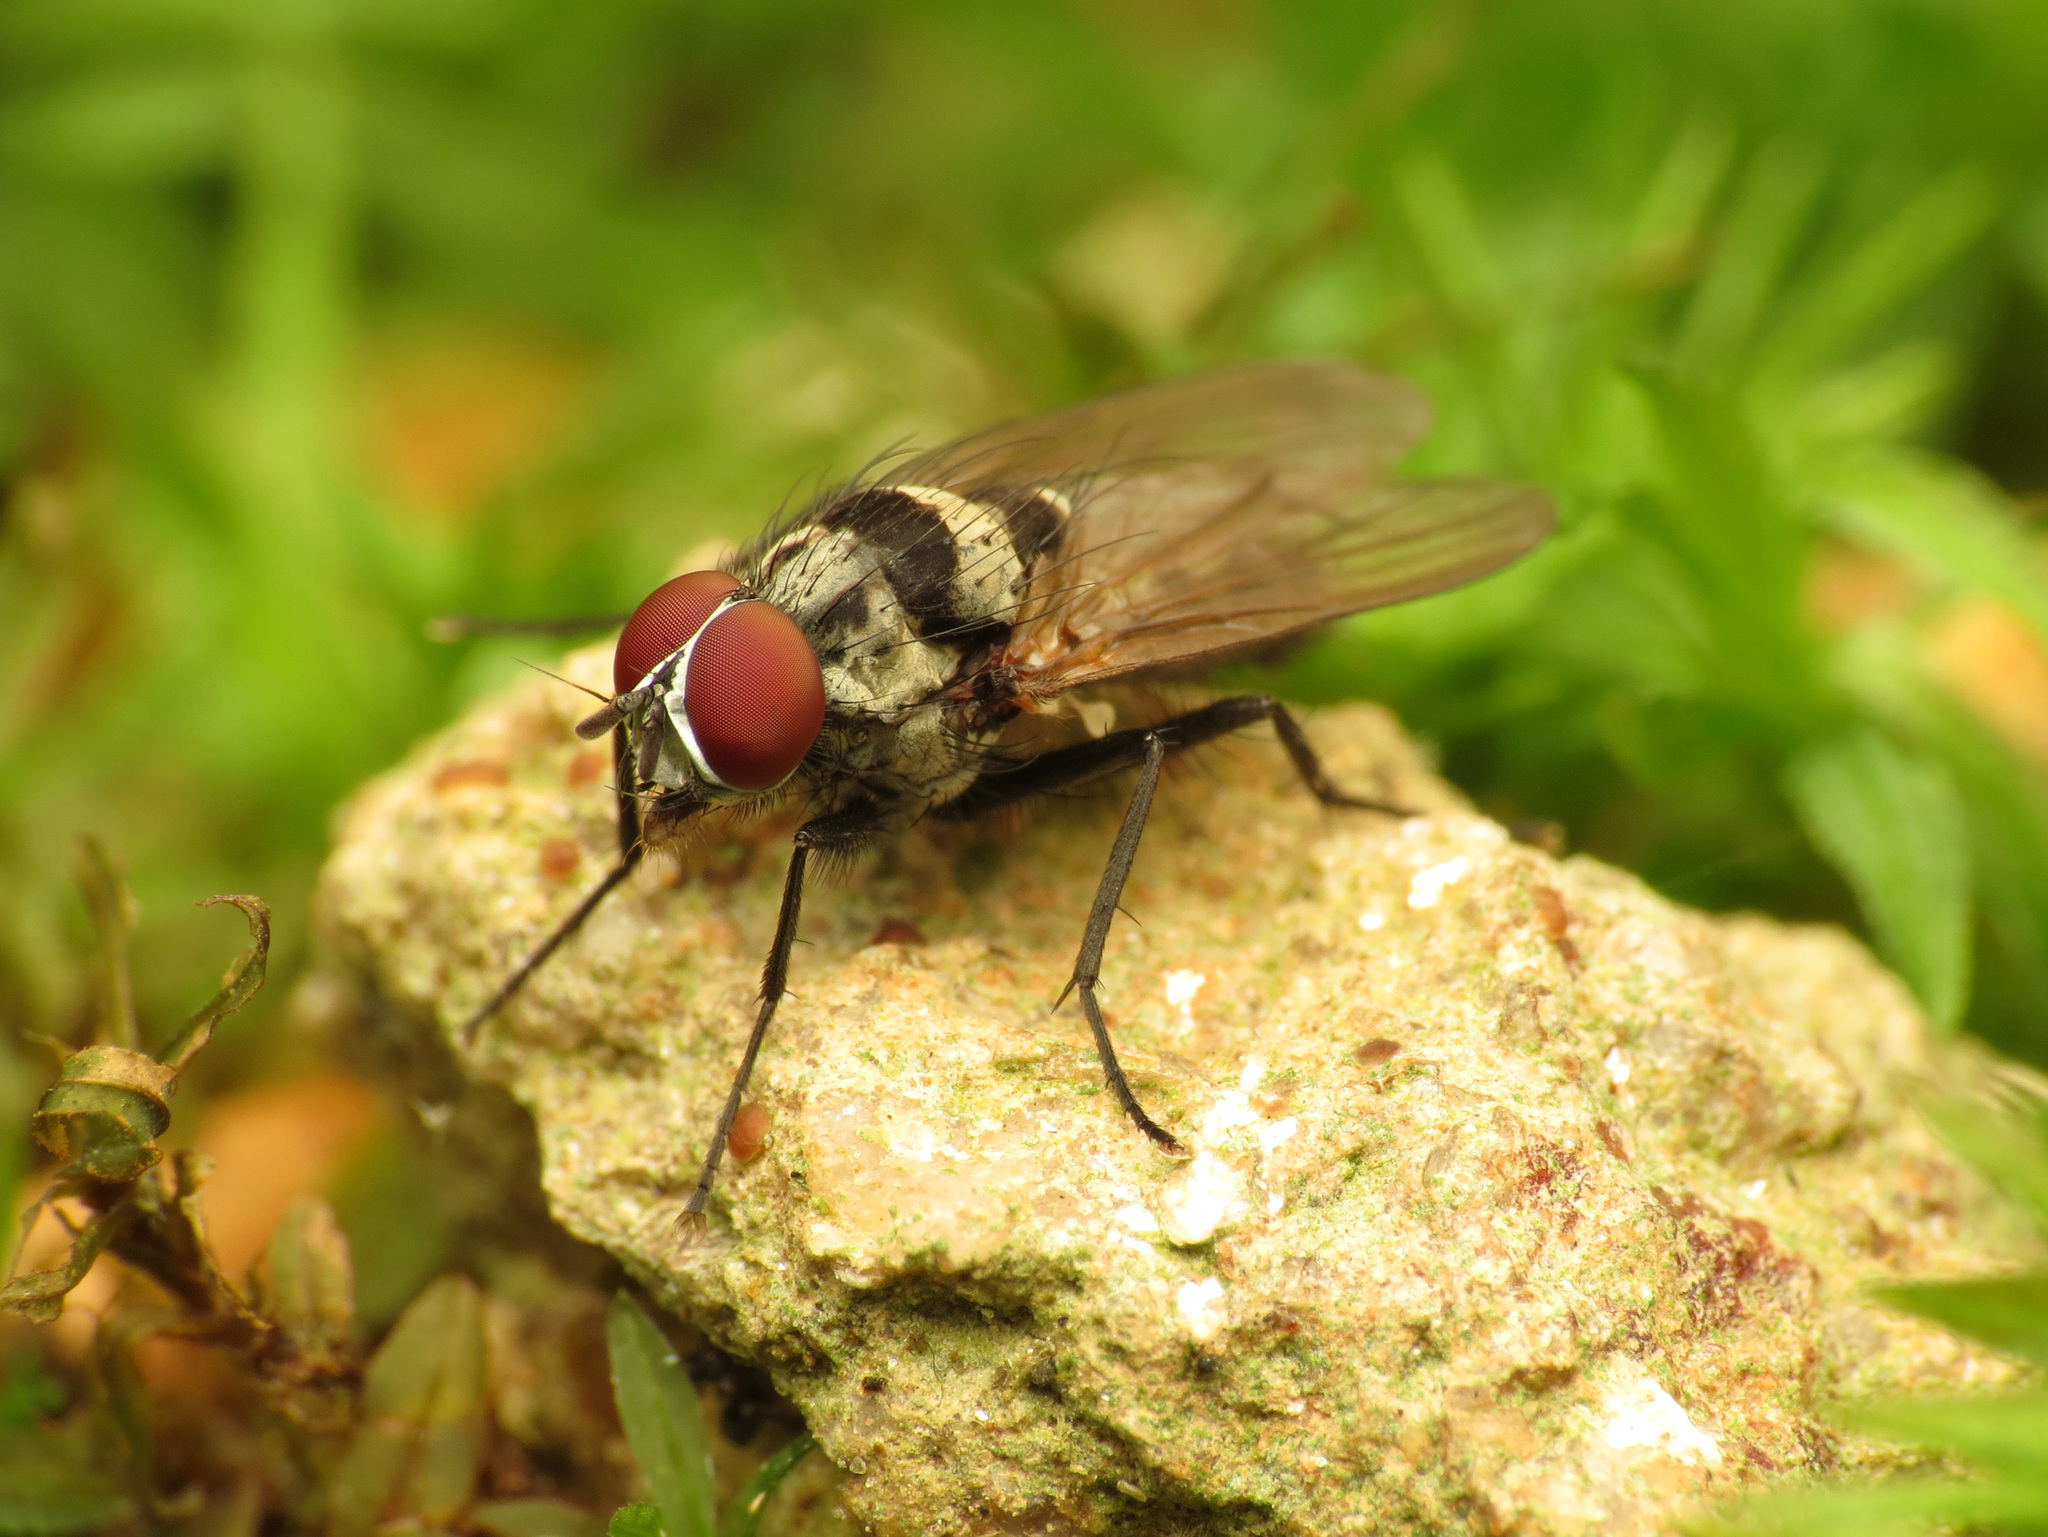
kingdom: Animalia
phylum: Arthropoda
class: Insecta
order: Diptera
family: Anthomyiidae
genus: Anthomyia
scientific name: Anthomyia oculifera
